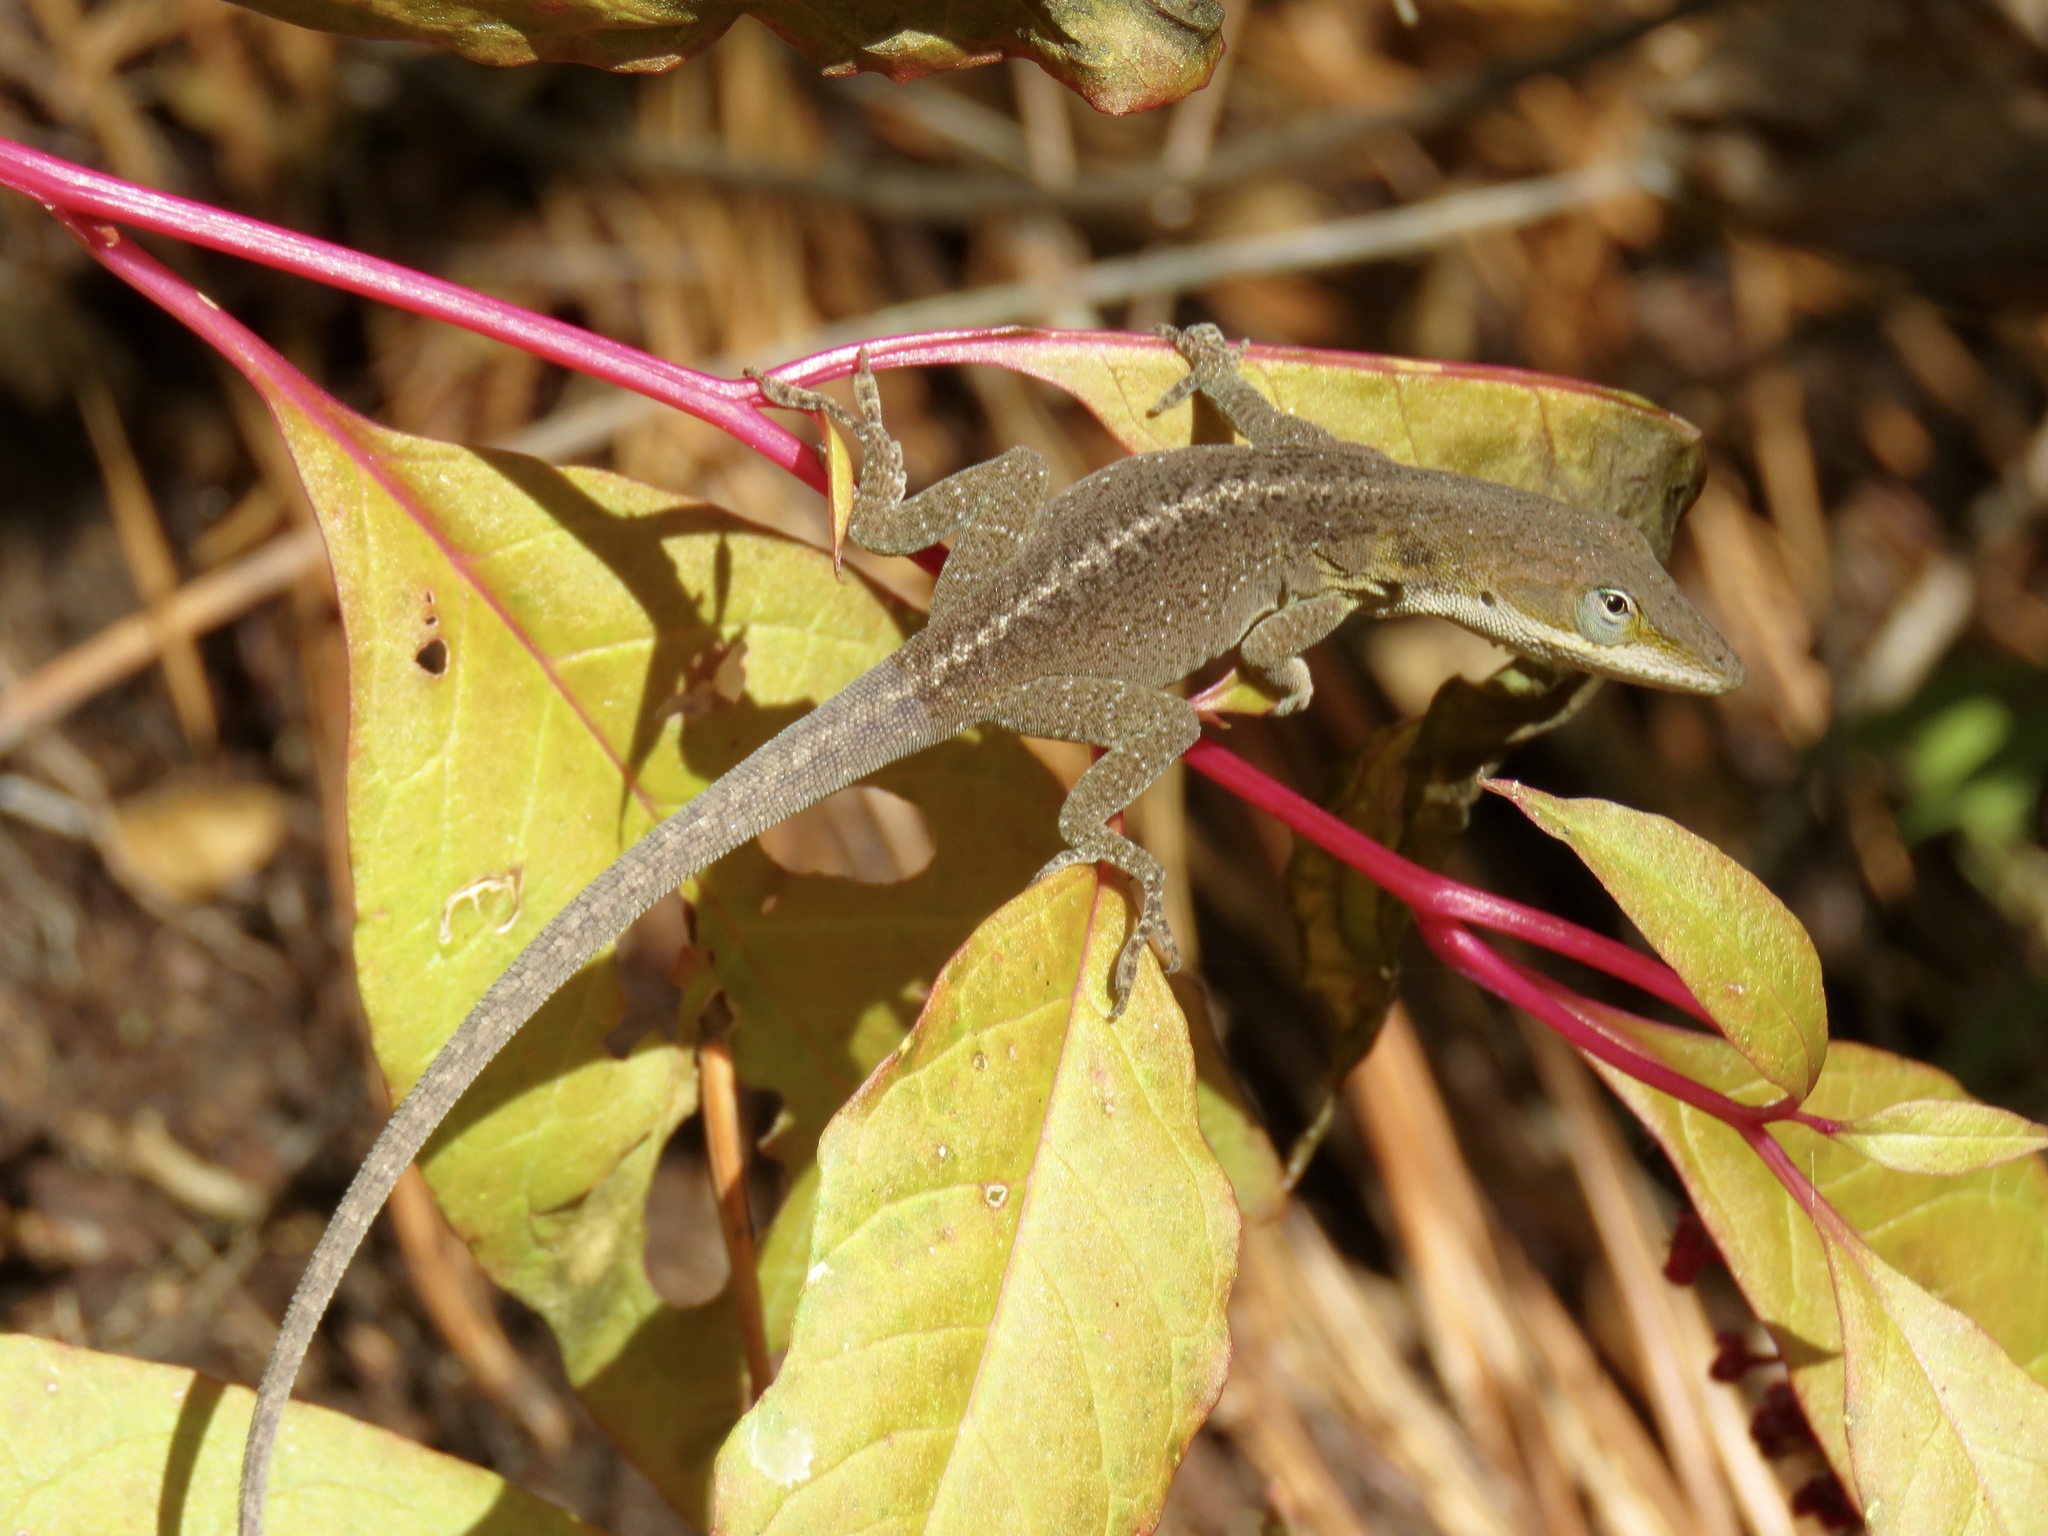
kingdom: Animalia
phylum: Chordata
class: Squamata
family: Dactyloidae
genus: Anolis
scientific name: Anolis carolinensis
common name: Green anole
